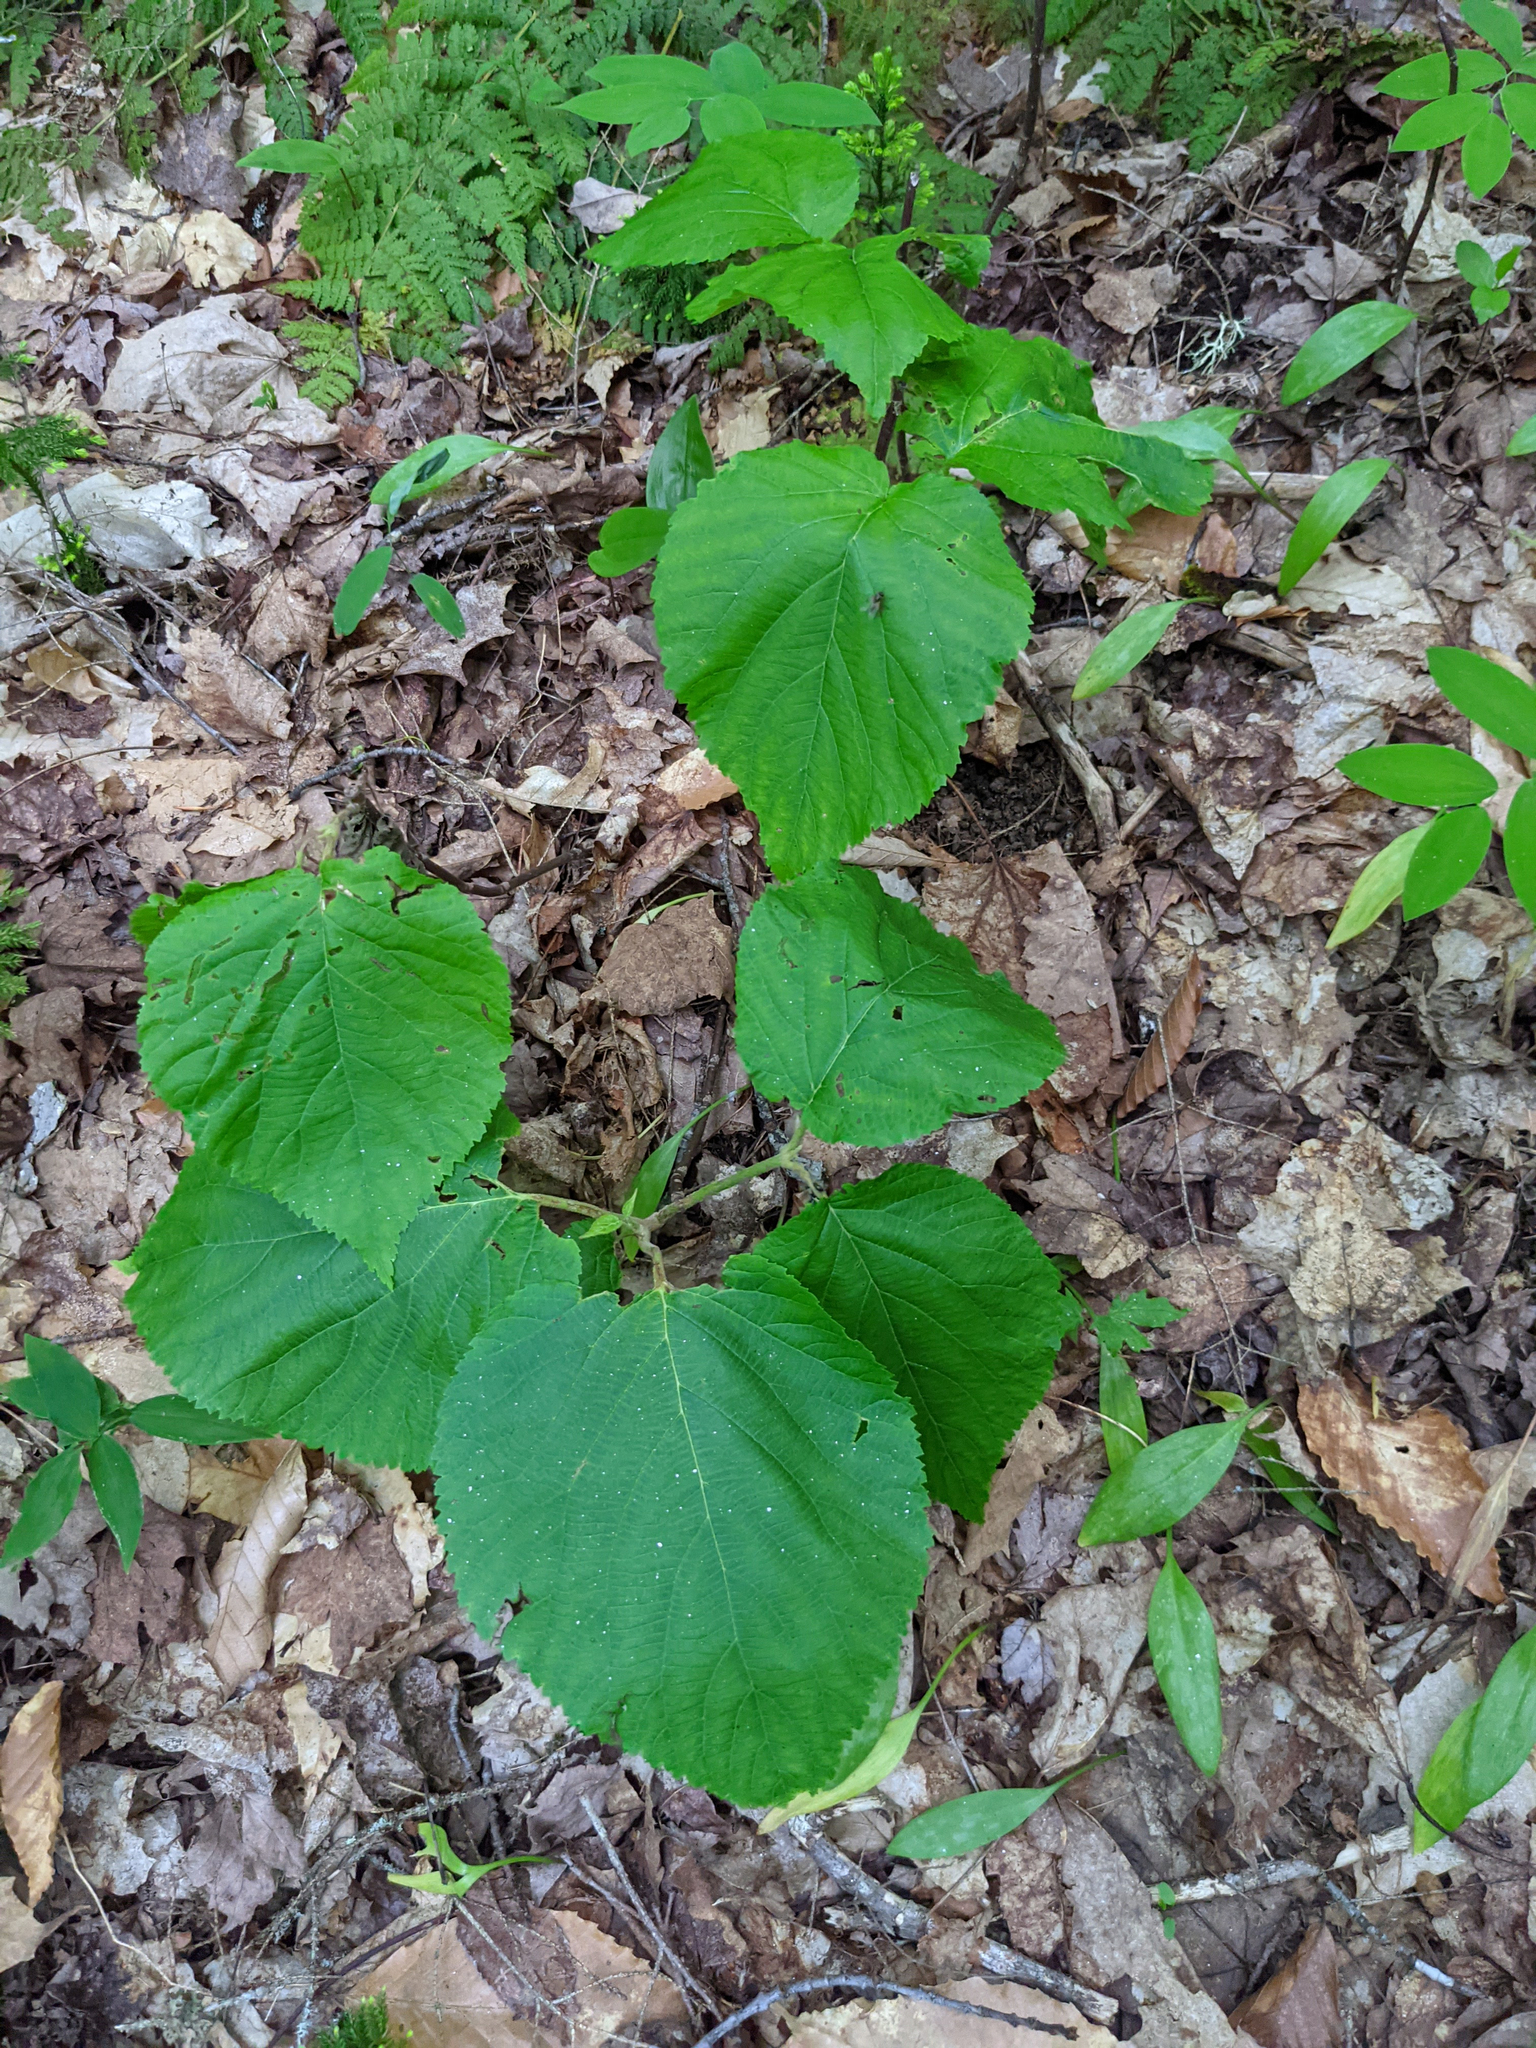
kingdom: Plantae
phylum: Tracheophyta
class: Magnoliopsida
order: Dipsacales
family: Viburnaceae
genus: Viburnum
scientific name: Viburnum lantanoides
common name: Hobblebush
